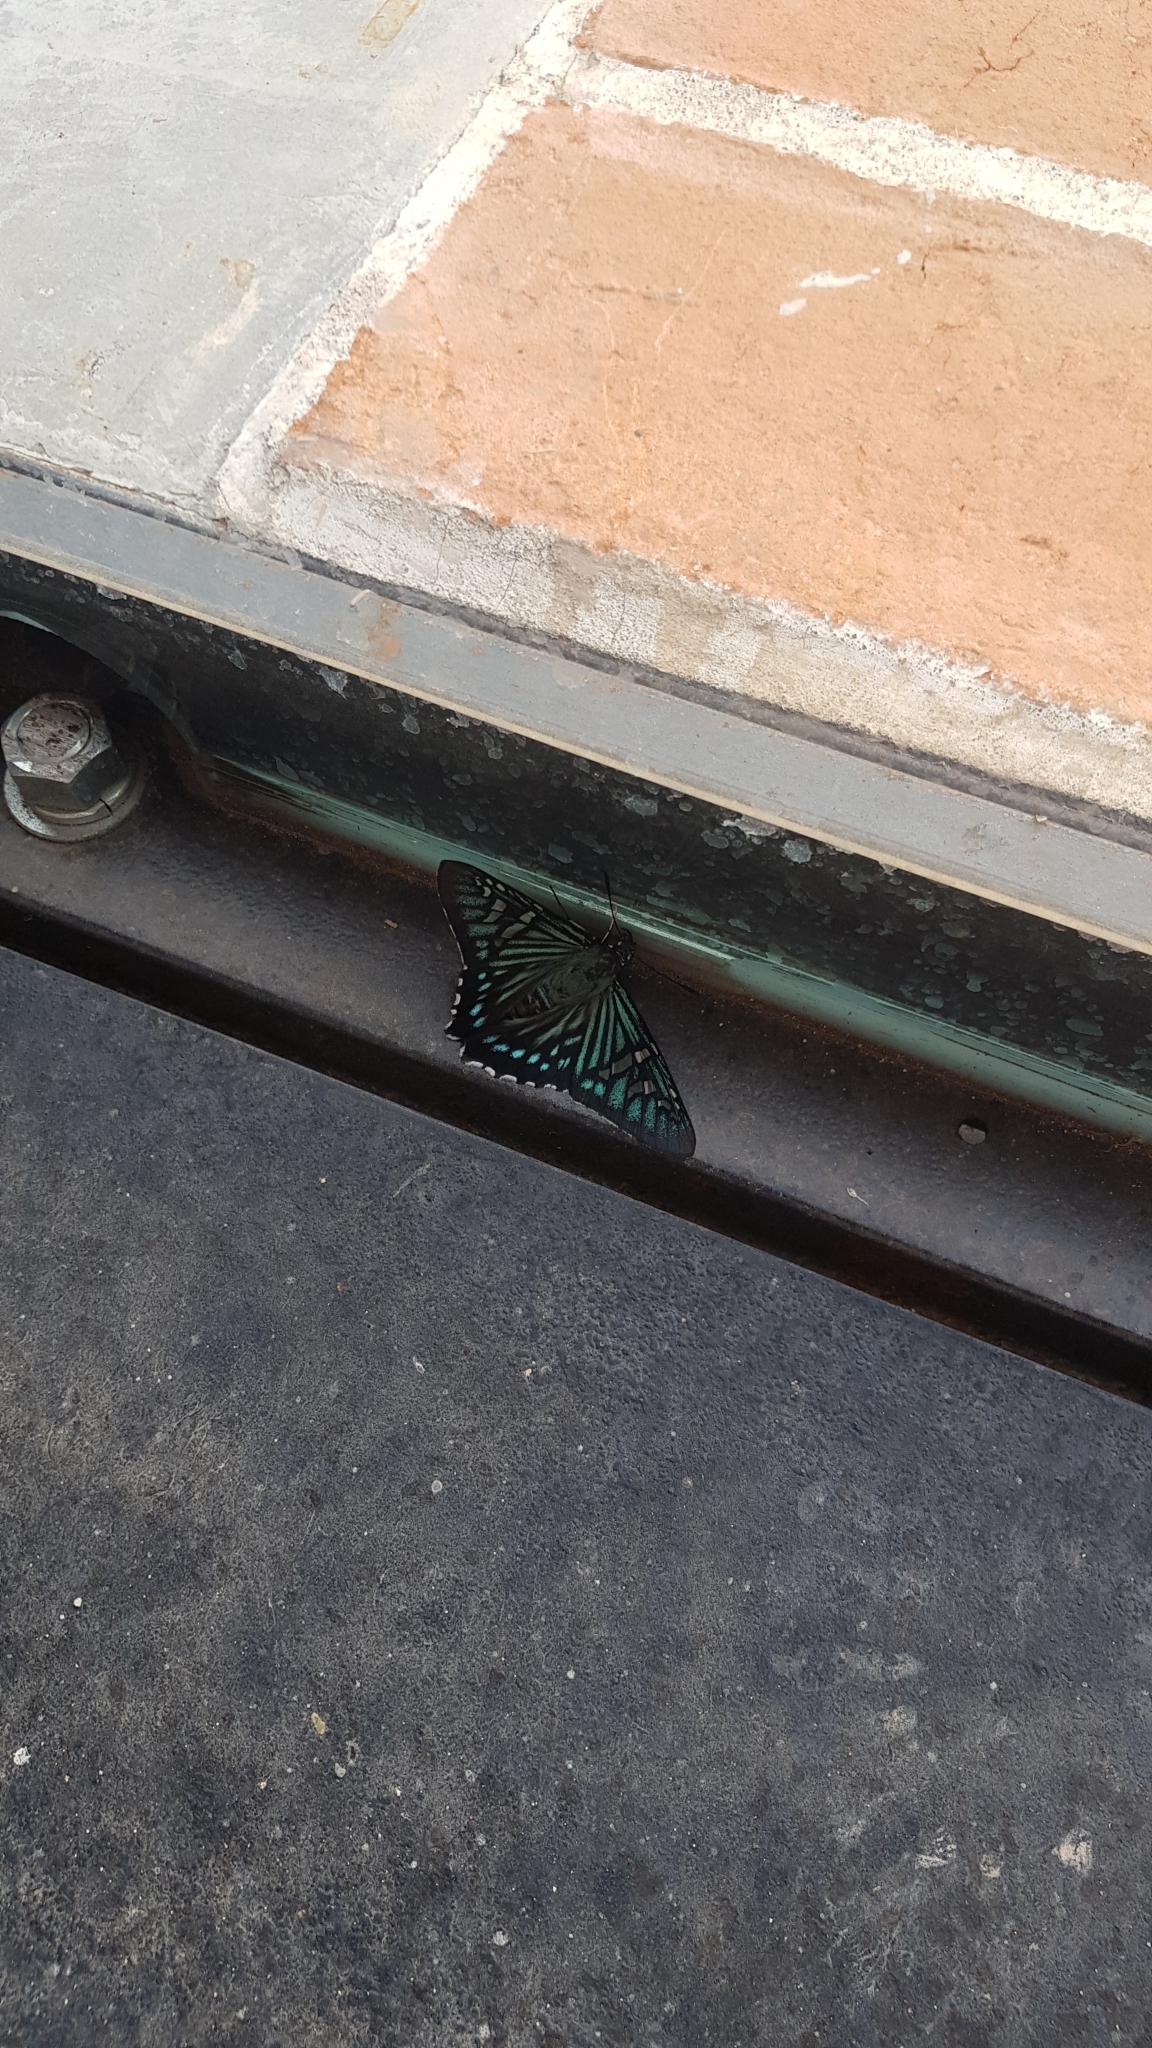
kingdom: Animalia
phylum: Arthropoda
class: Insecta
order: Lepidoptera
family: Hesperiidae
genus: Phocides
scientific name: Phocides urania
